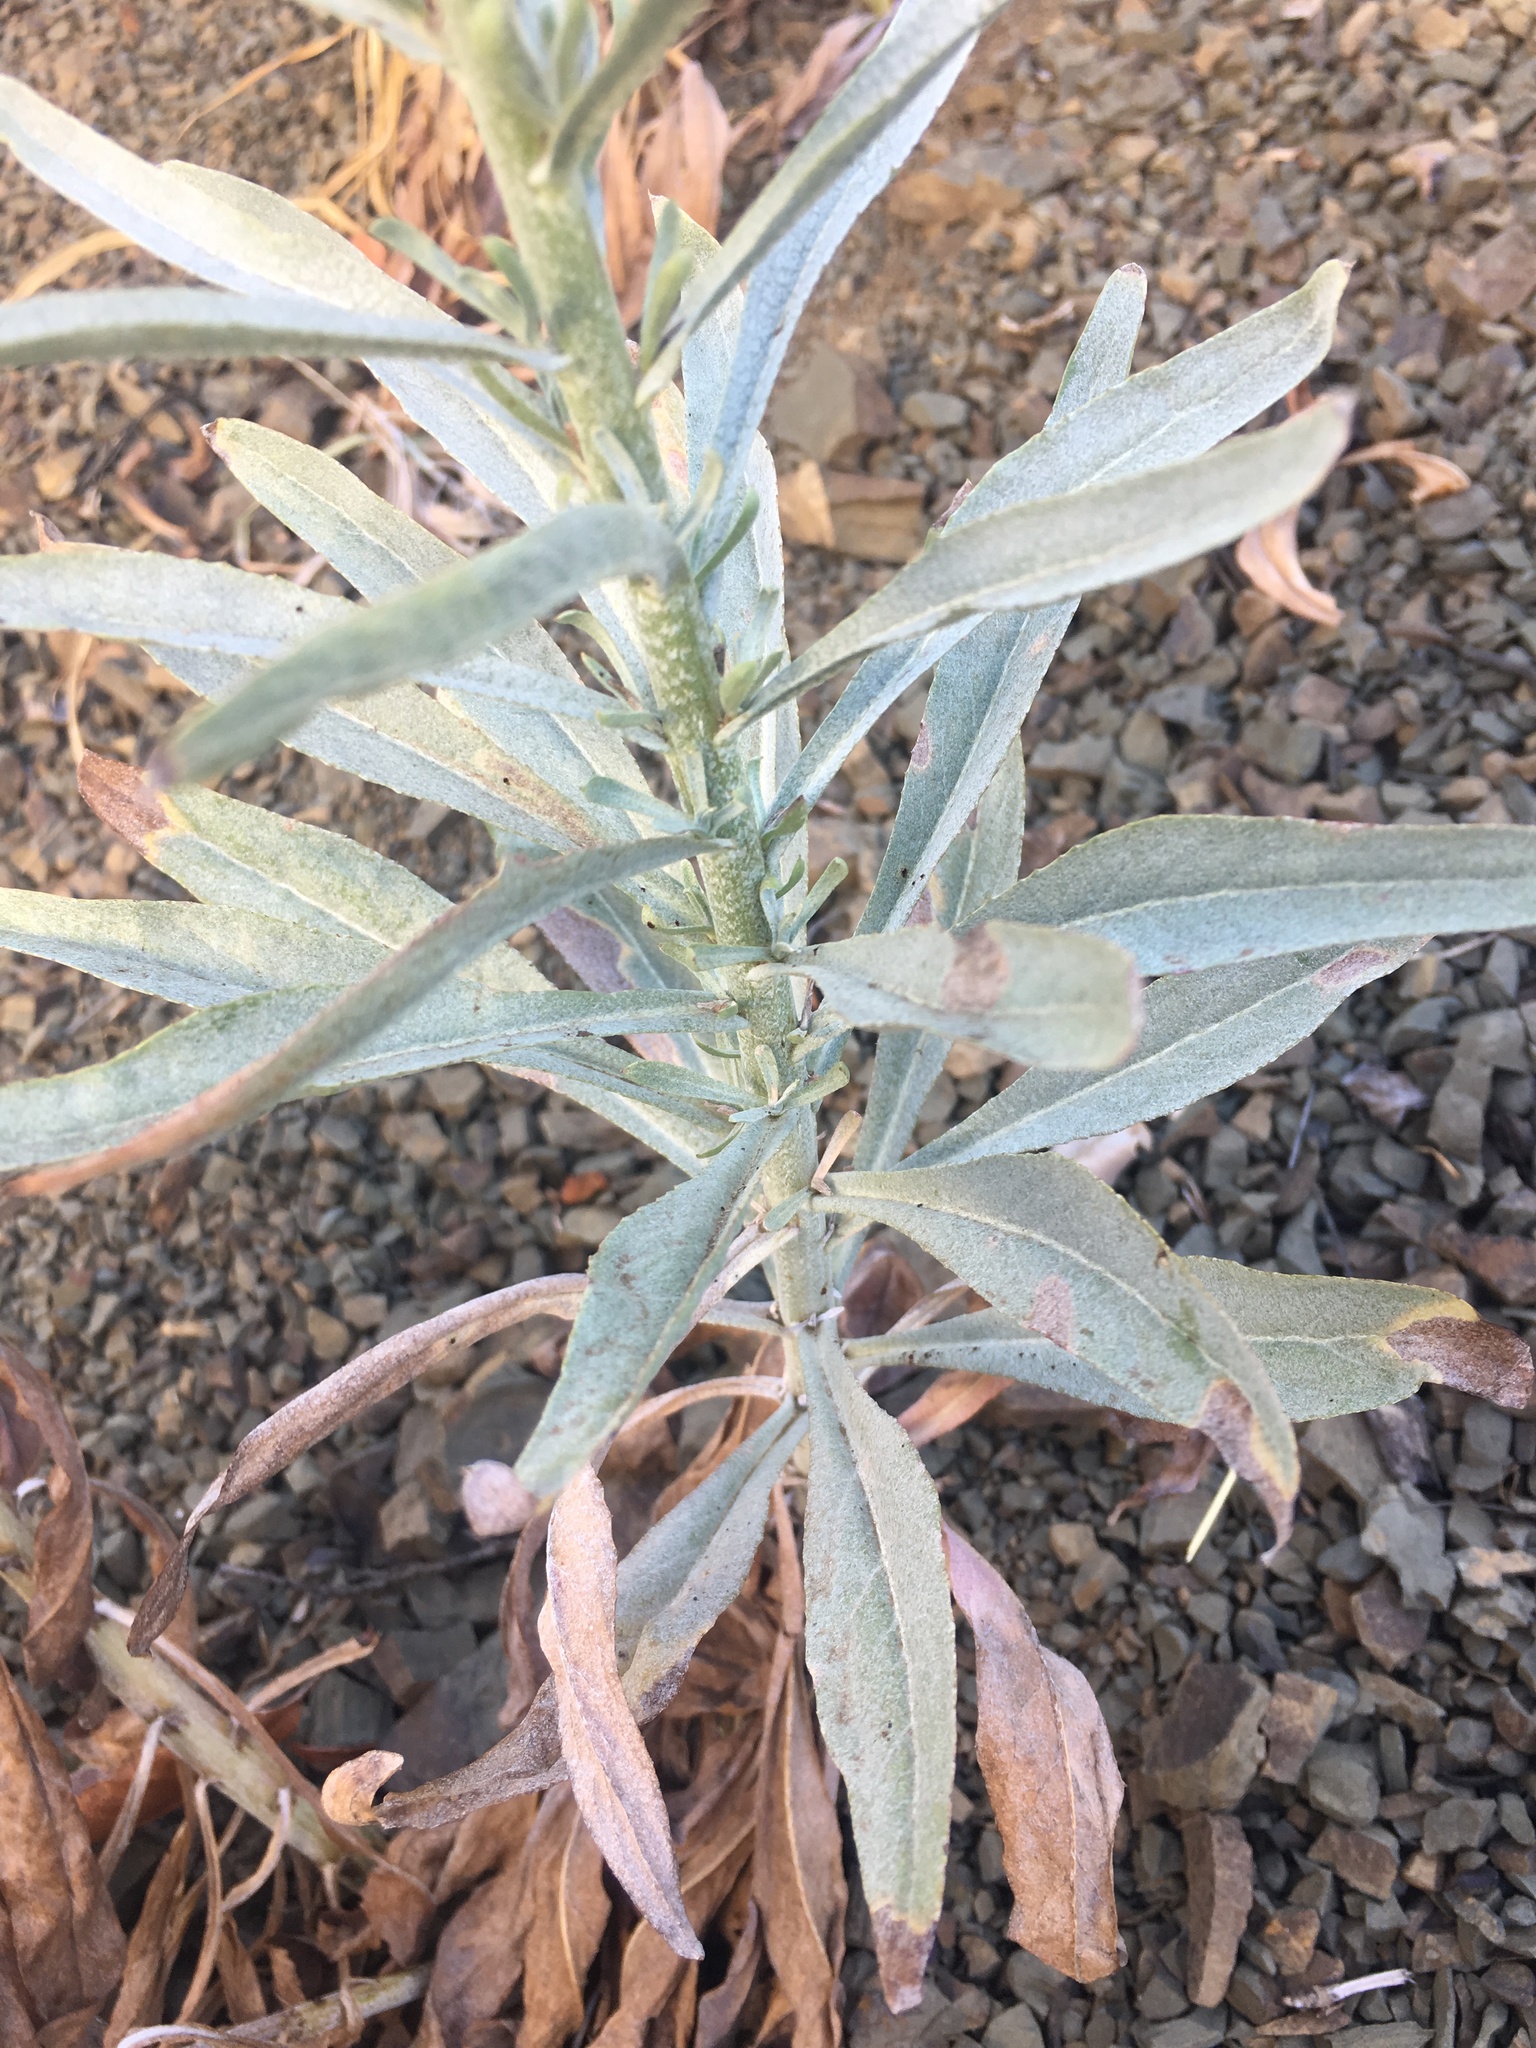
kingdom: Plantae
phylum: Tracheophyta
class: Magnoliopsida
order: Asterales
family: Asteraceae
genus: Malacothrix
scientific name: Malacothrix saxatilis
